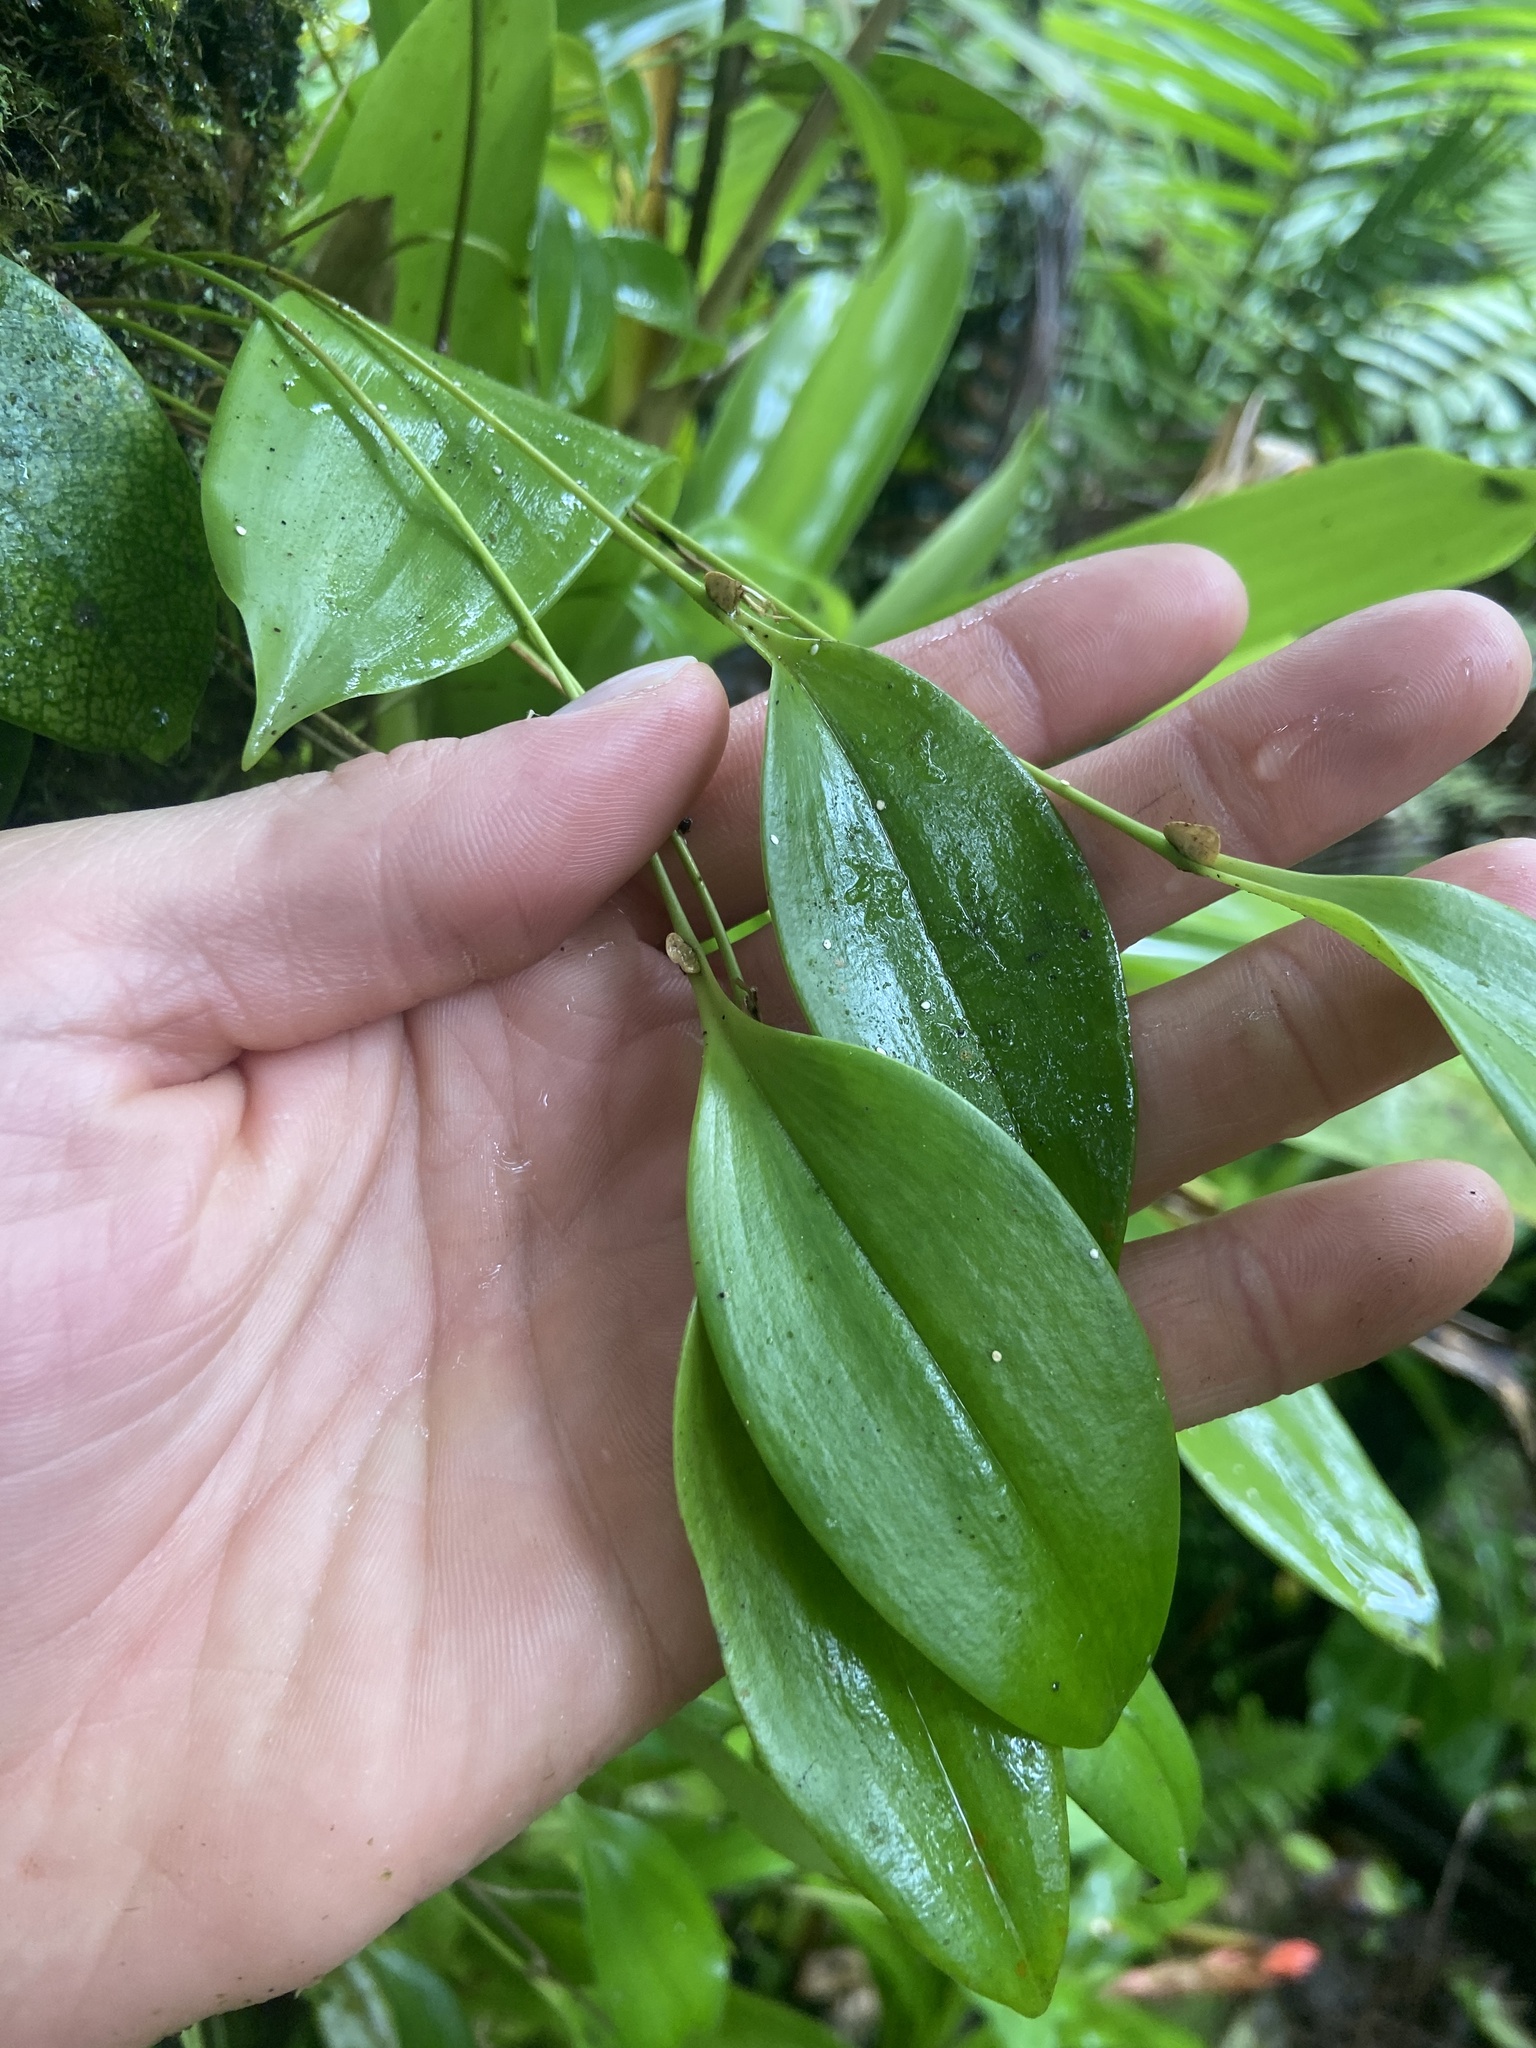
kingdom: Plantae
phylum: Tracheophyta
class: Liliopsida
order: Asparagales
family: Orchidaceae
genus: Stelis
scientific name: Stelis antillensis
